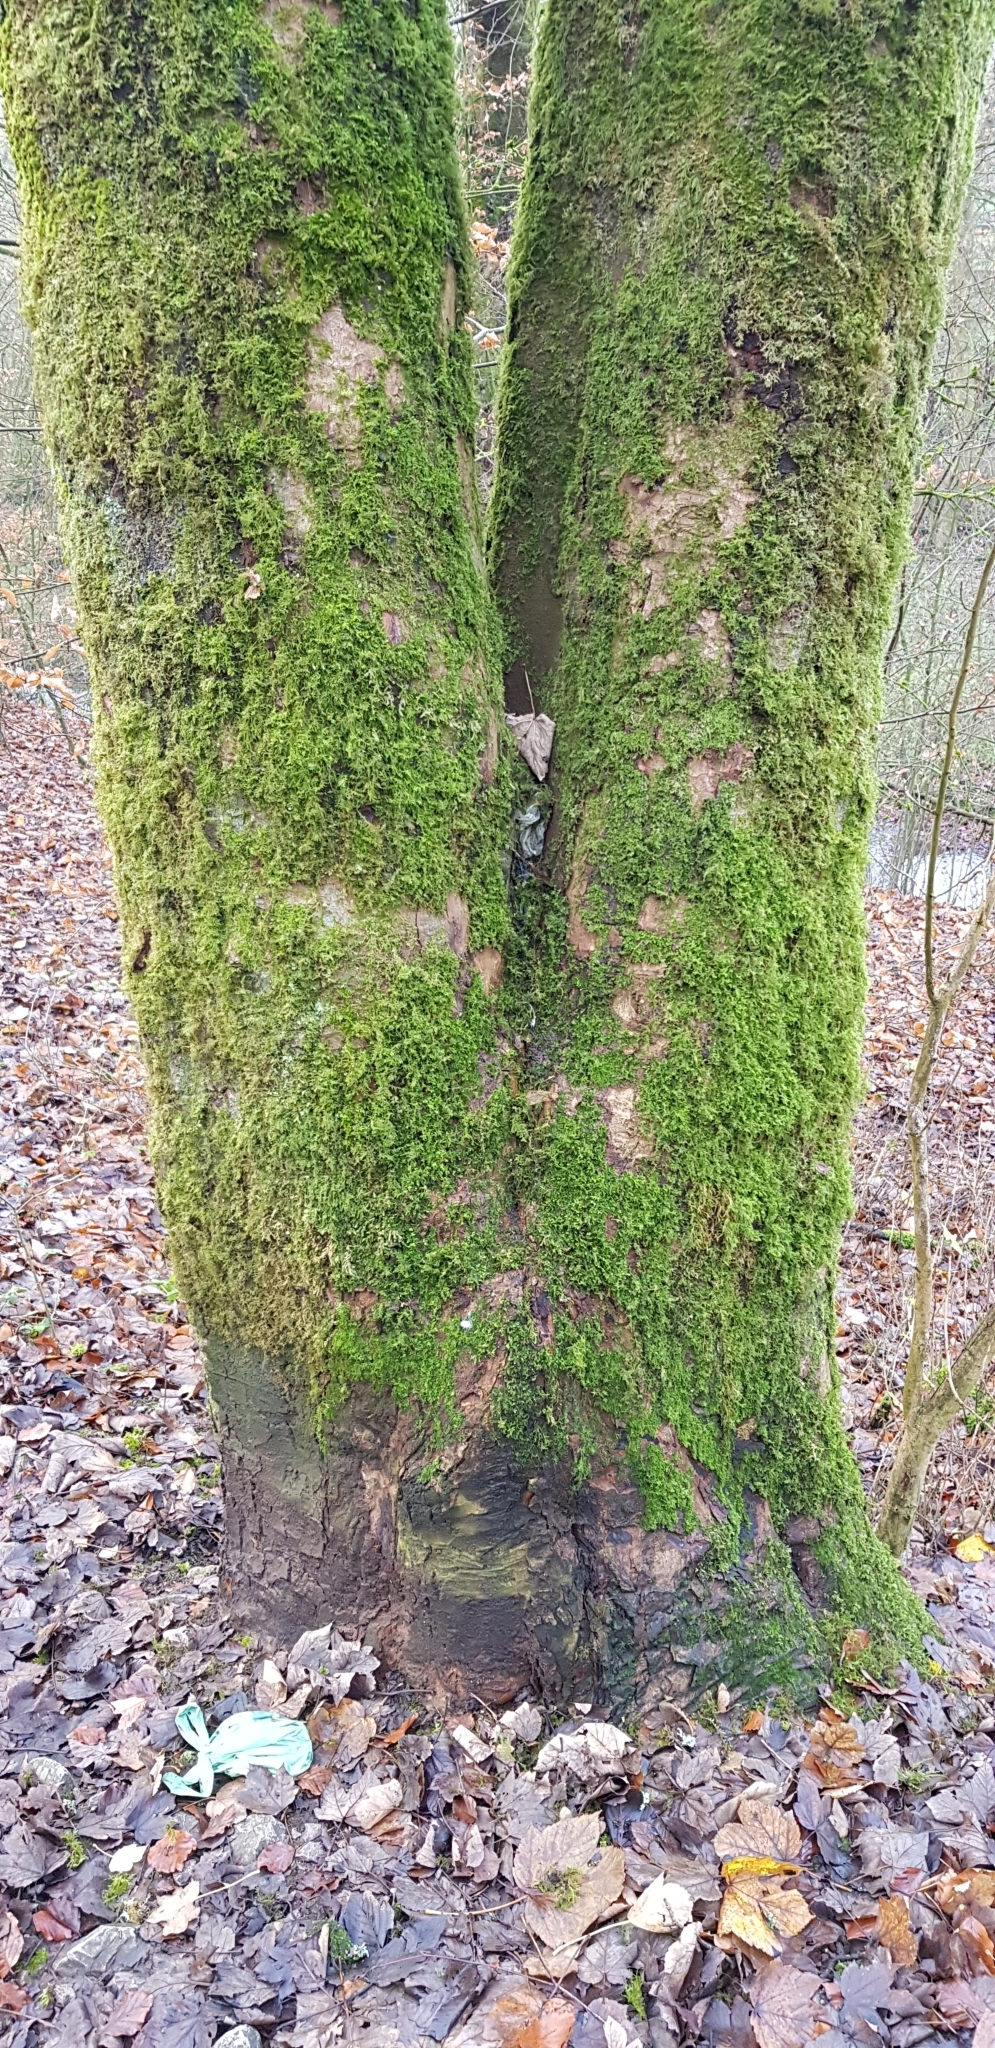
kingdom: Plantae
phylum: Bryophyta
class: Bryopsida
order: Hypnales
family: Brachytheciaceae
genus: Kindbergia
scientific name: Kindbergia praelonga
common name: Slender beaked moss
